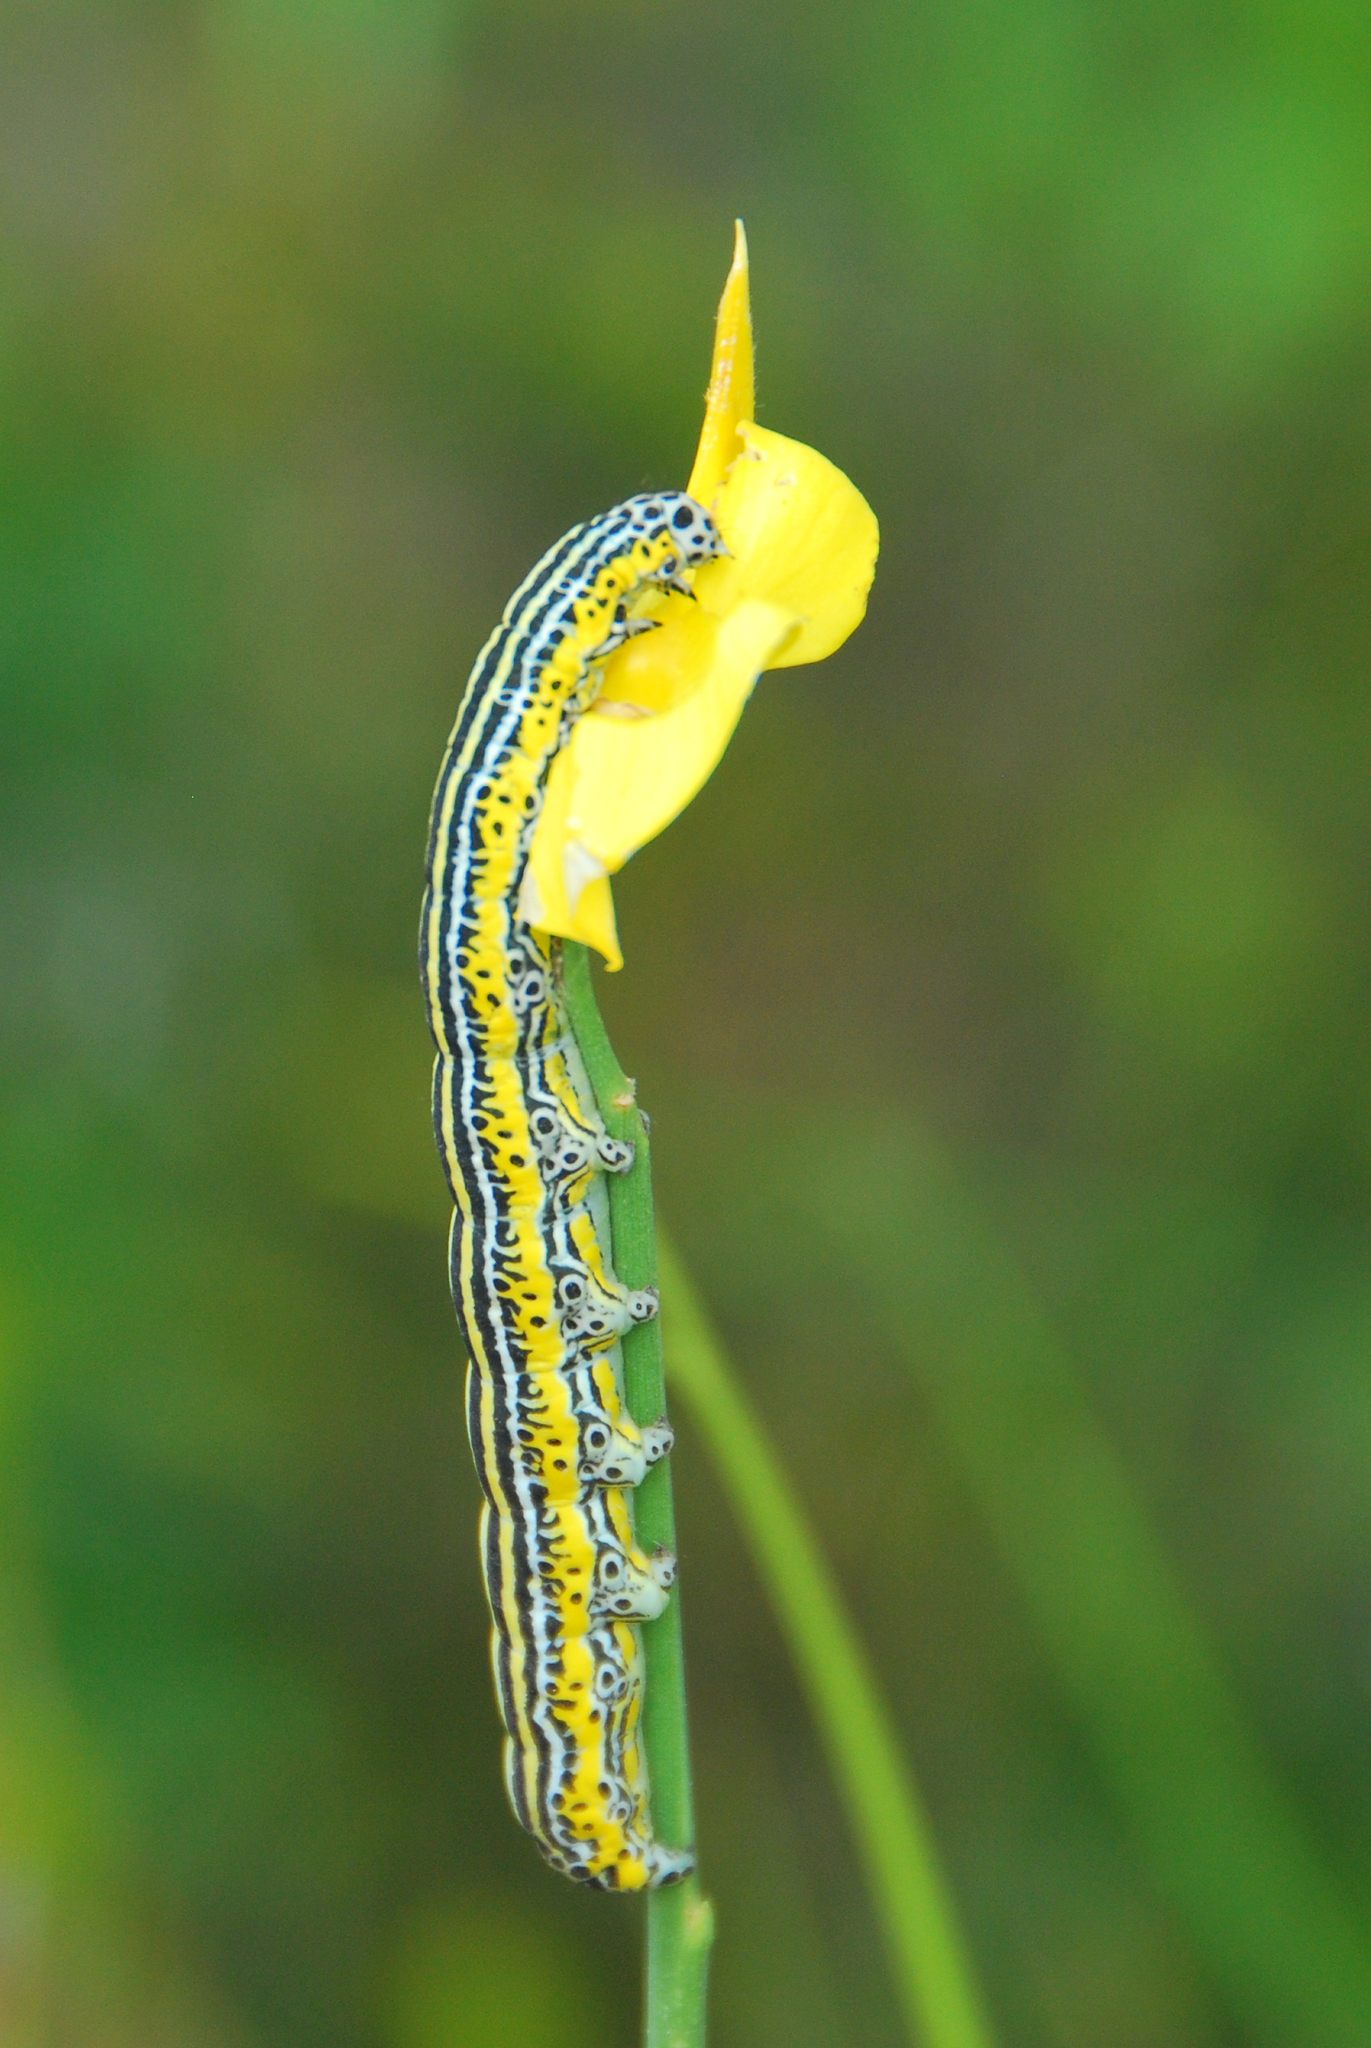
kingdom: Animalia
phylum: Arthropoda
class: Insecta
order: Lepidoptera
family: Erebidae
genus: Apopestes
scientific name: Apopestes spectrum
